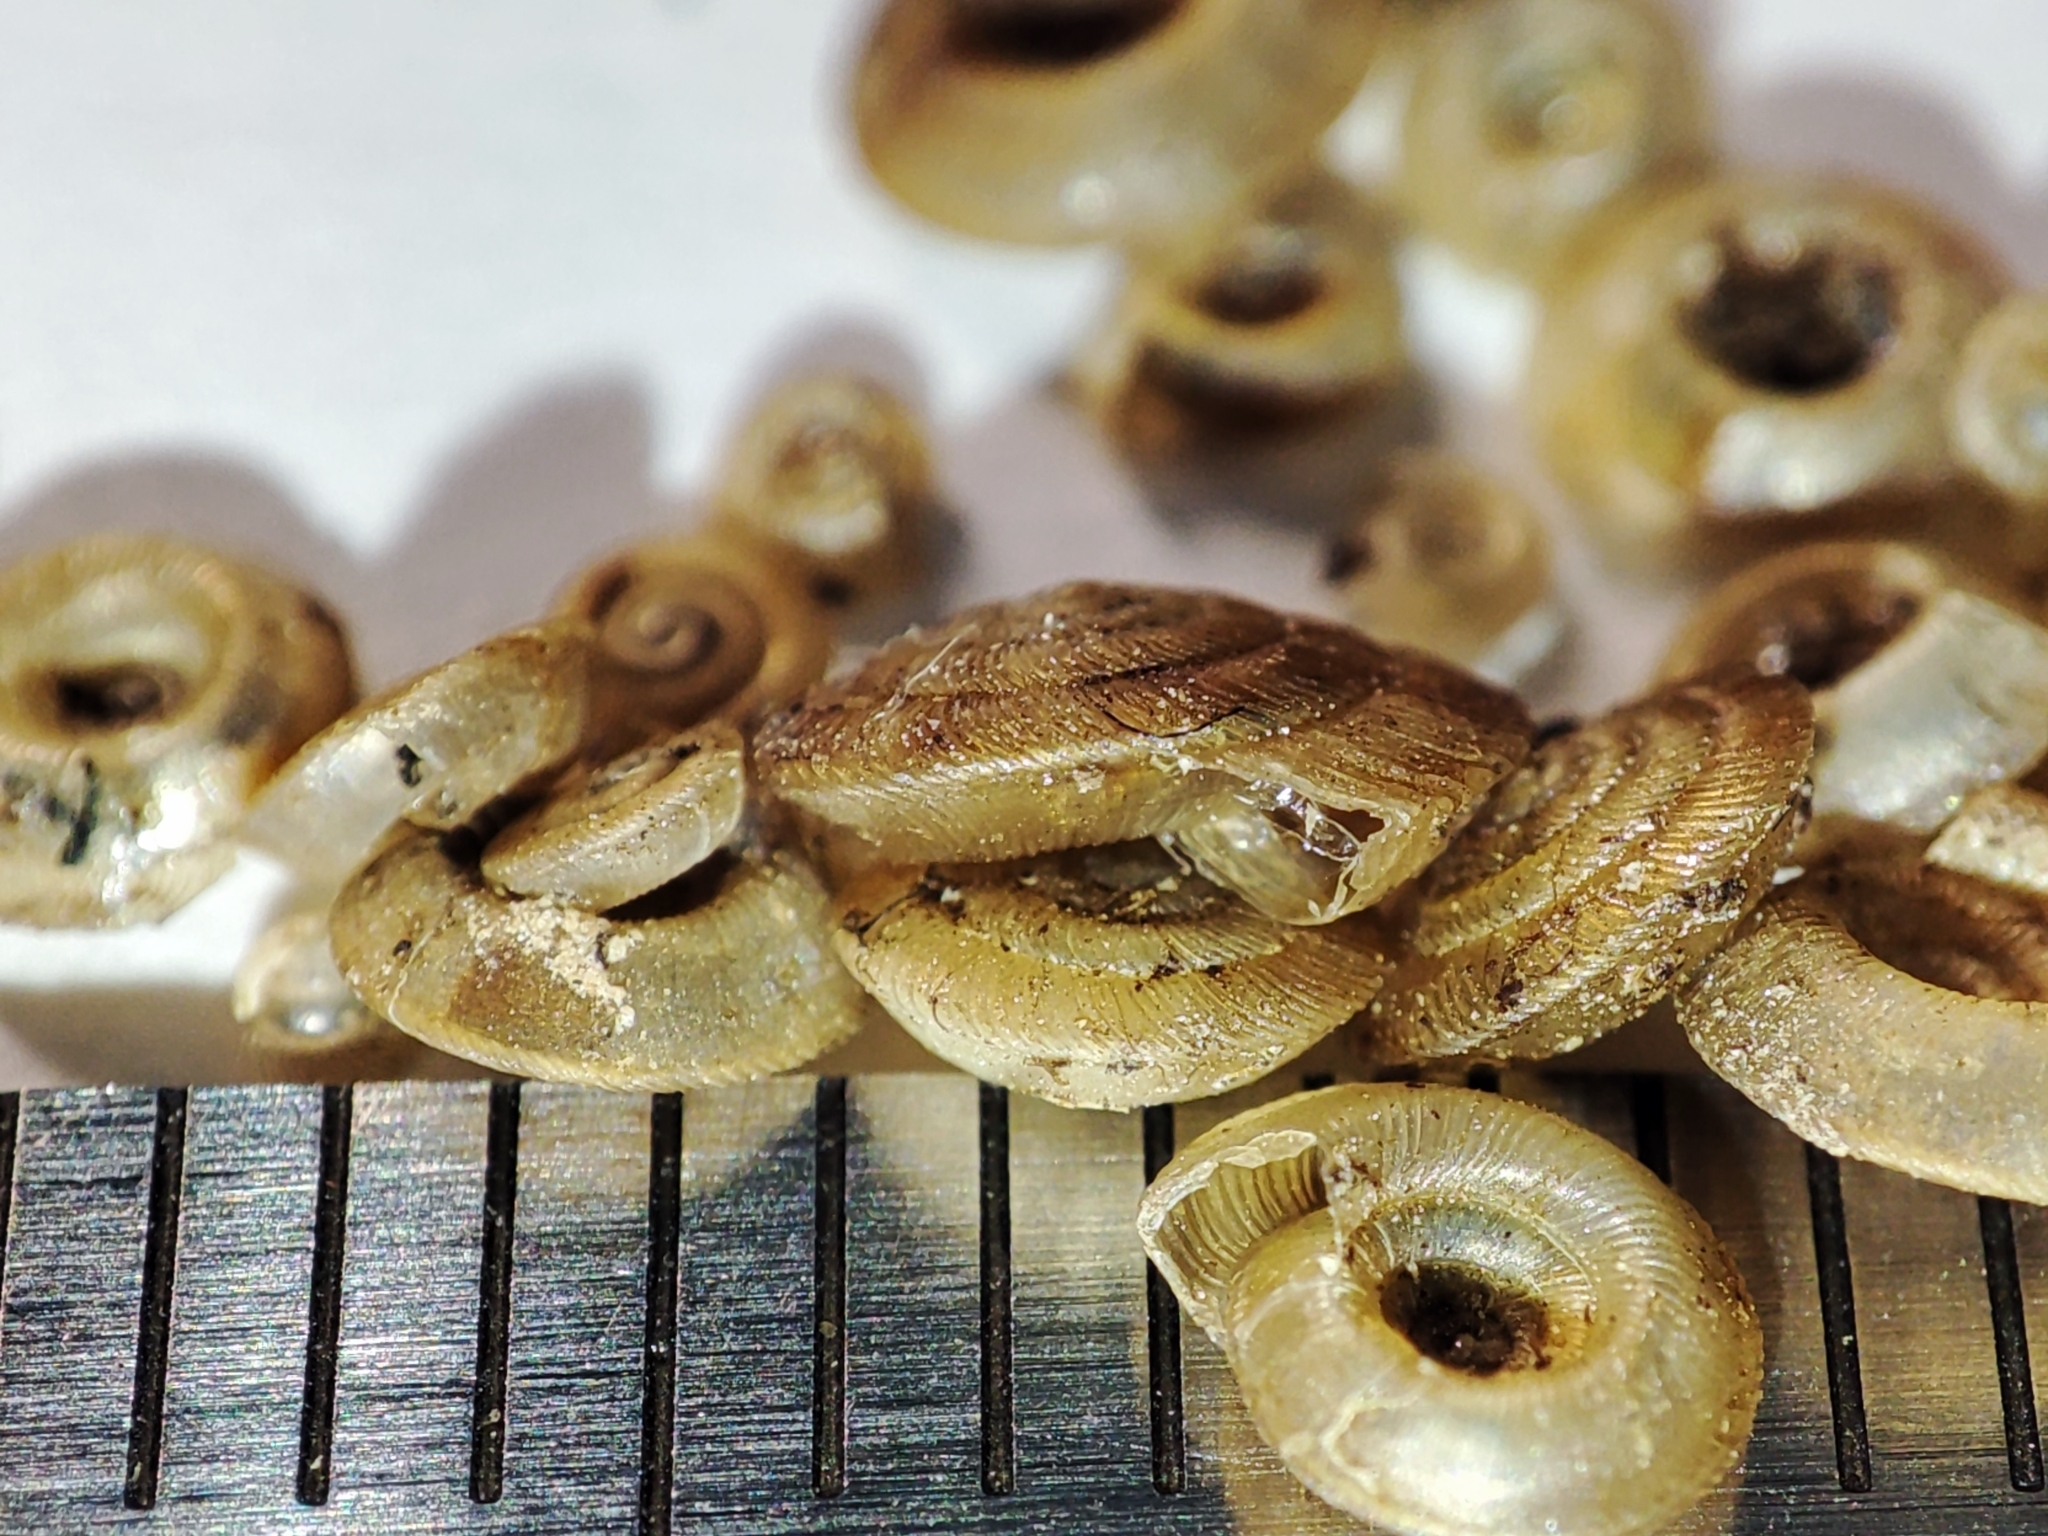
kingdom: Animalia
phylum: Mollusca
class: Gastropoda
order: Stylommatophora
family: Discidae
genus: Discus
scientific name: Discus
